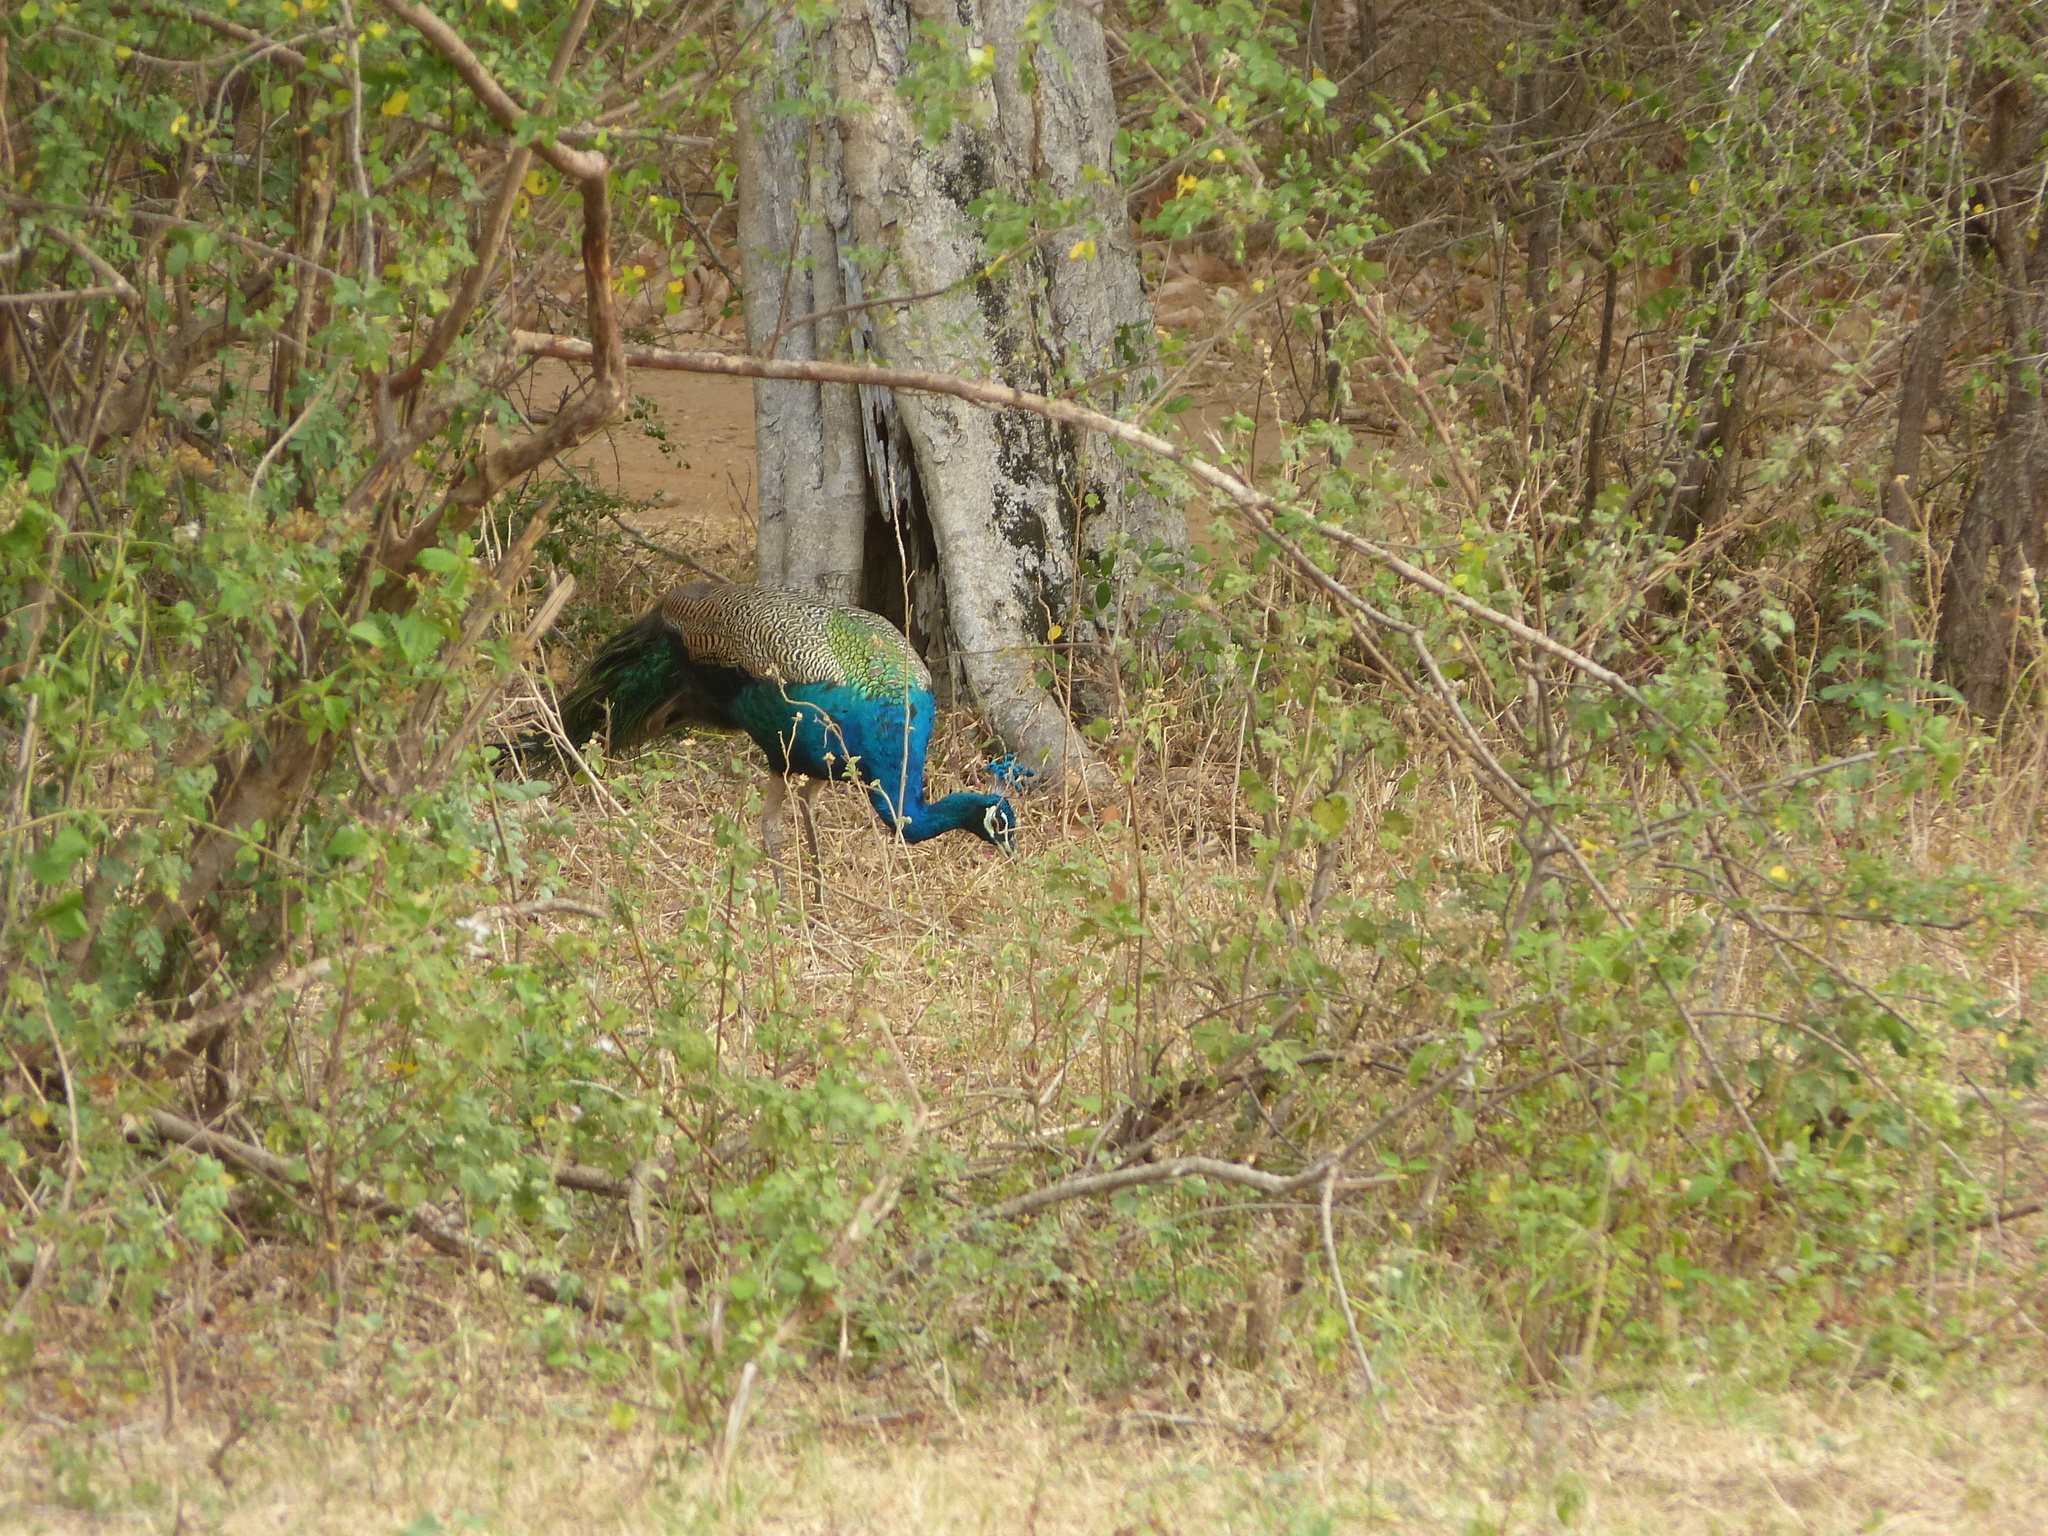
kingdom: Animalia
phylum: Chordata
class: Aves
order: Galliformes
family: Phasianidae
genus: Pavo
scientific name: Pavo cristatus
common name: Indian peafowl
